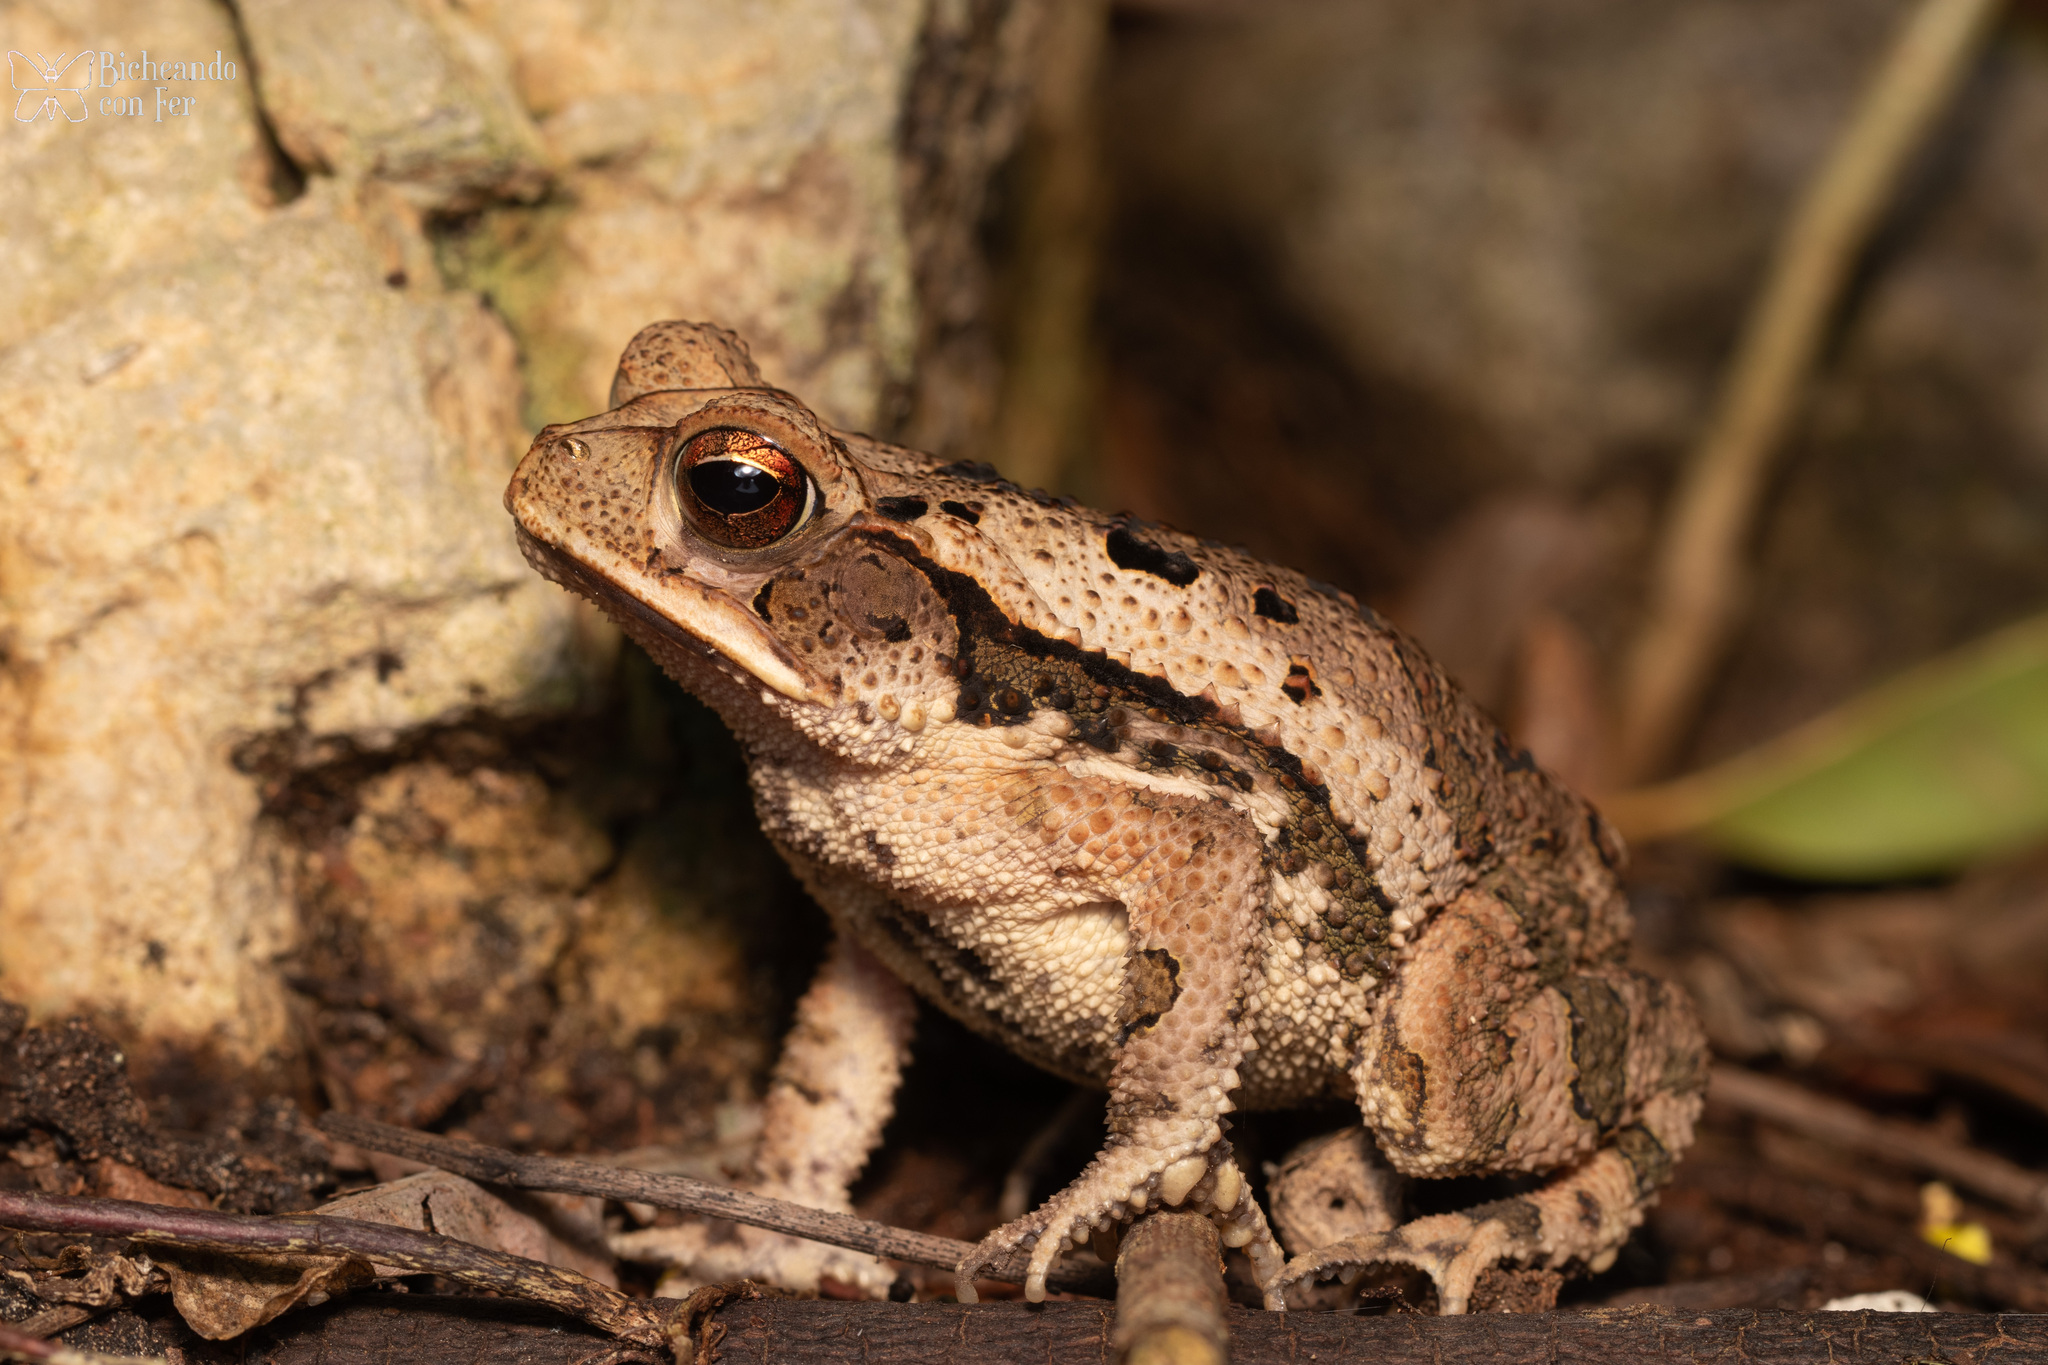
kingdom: Animalia
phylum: Chordata
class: Amphibia
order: Anura
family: Bufonidae
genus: Incilius
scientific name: Incilius valliceps
